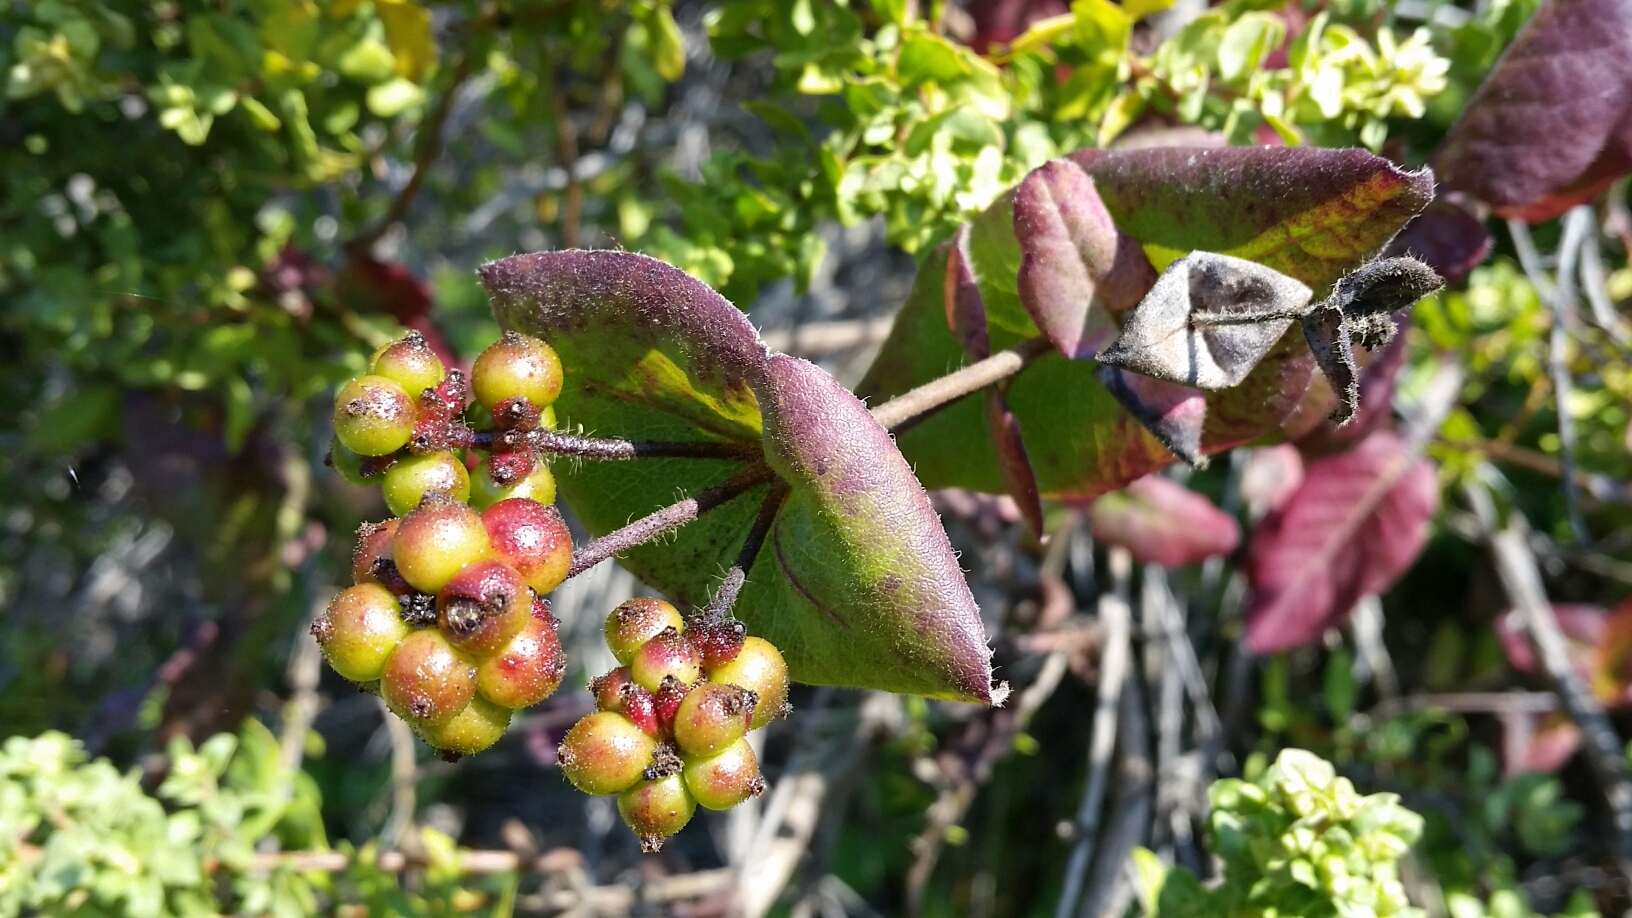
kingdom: Plantae
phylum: Tracheophyta
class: Magnoliopsida
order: Dipsacales
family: Caprifoliaceae
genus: Lonicera
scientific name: Lonicera hispidula
